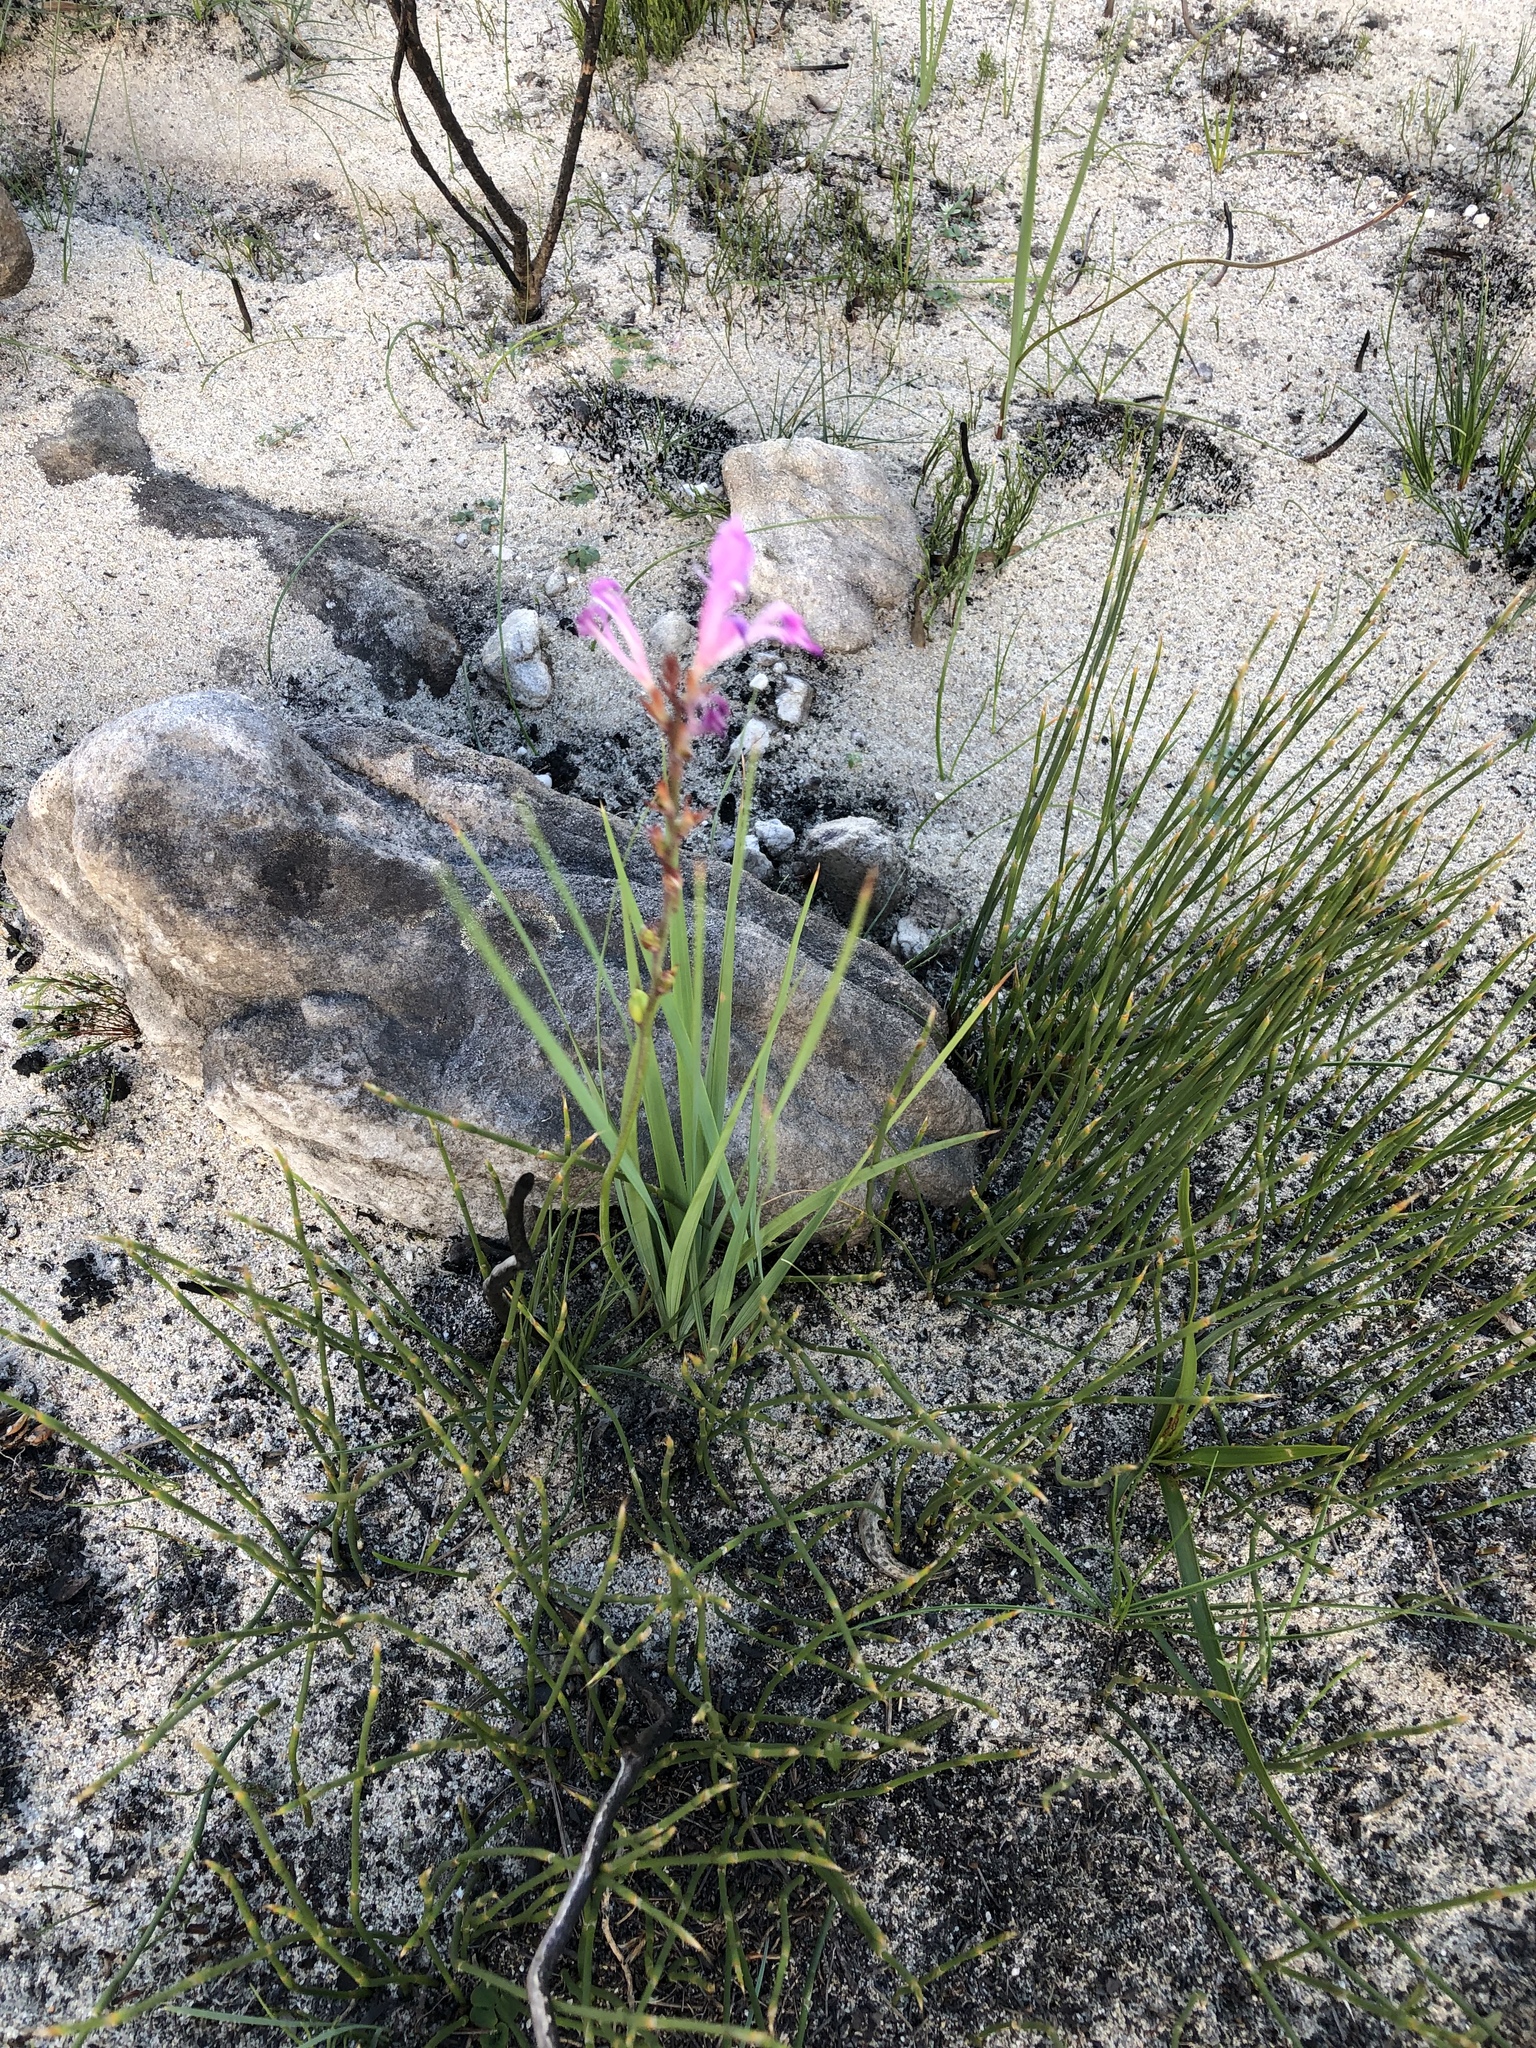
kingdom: Plantae
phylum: Tracheophyta
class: Liliopsida
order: Asparagales
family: Iridaceae
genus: Tritoniopsis
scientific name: Tritoniopsis lata
